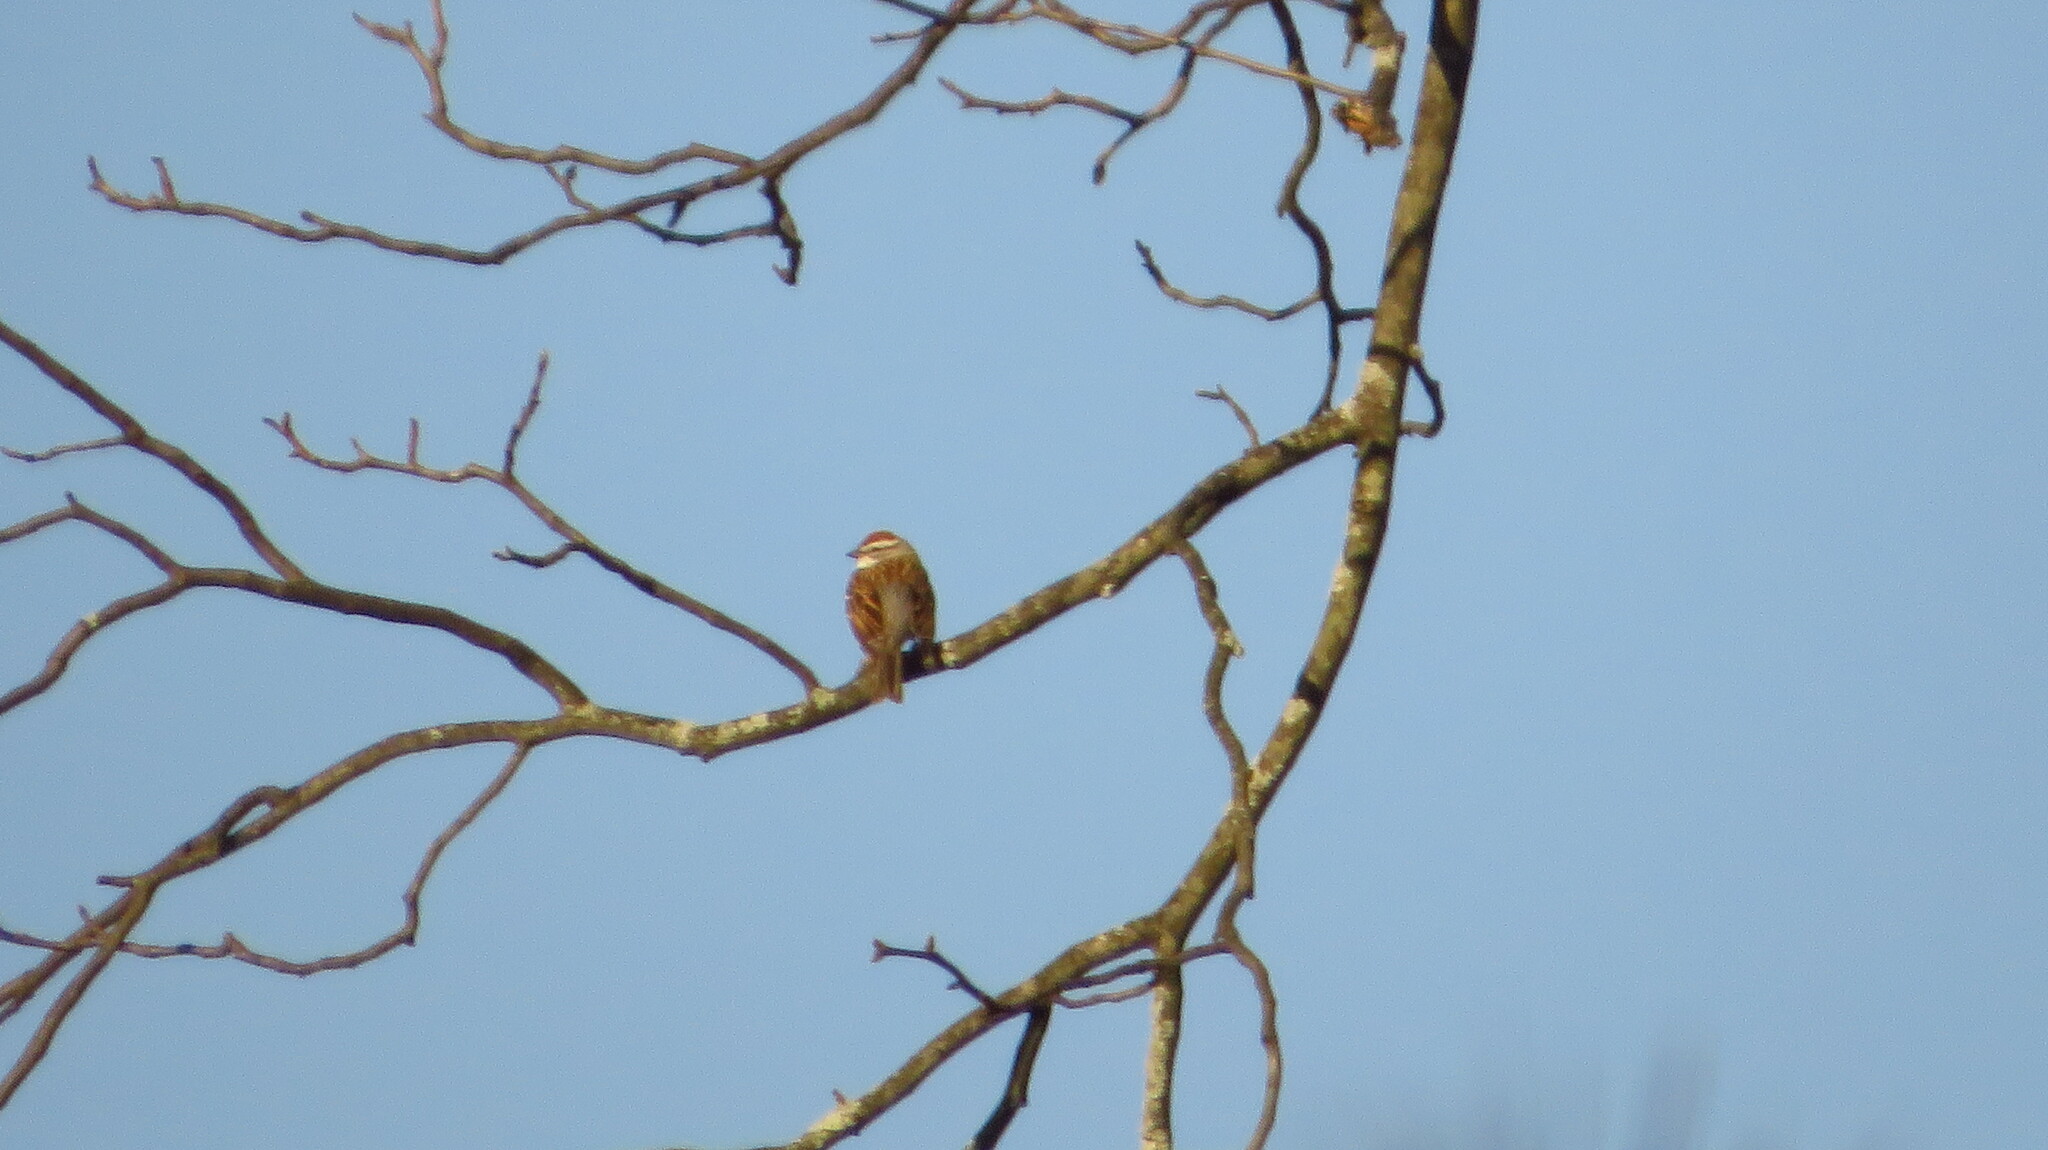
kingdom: Animalia
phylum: Chordata
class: Aves
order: Passeriformes
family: Passerellidae
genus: Spizella
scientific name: Spizella passerina
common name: Chipping sparrow
